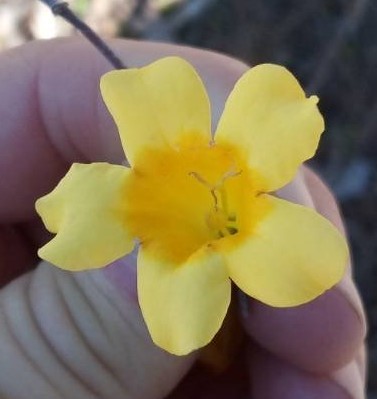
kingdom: Plantae
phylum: Tracheophyta
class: Magnoliopsida
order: Gentianales
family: Gelsemiaceae
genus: Gelsemium
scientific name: Gelsemium sempervirens
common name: Carolina-jasmine
